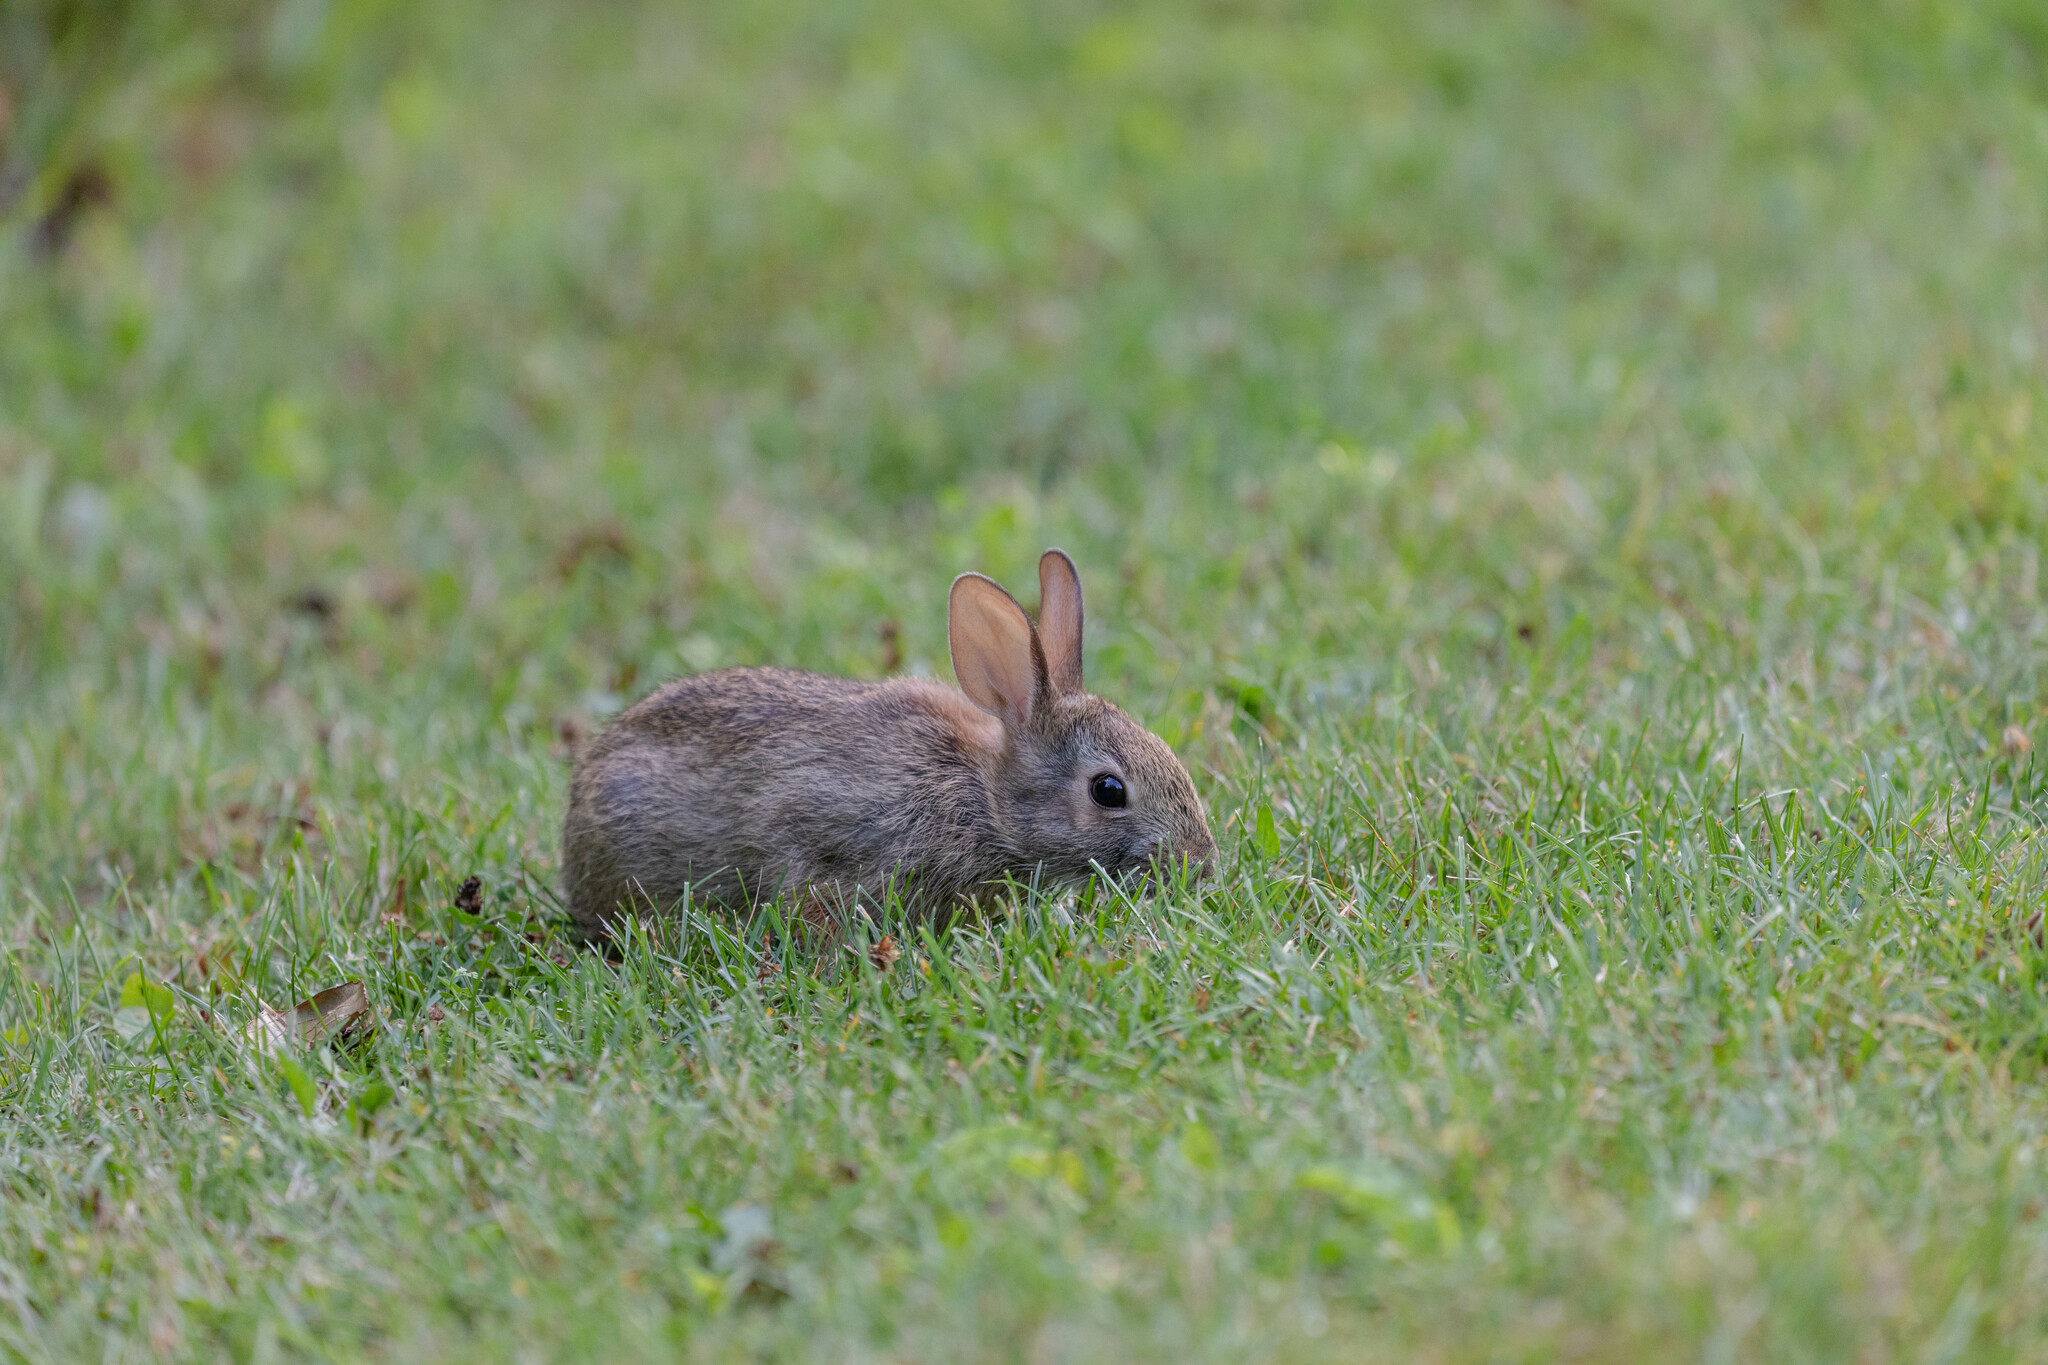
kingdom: Animalia
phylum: Chordata
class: Mammalia
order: Lagomorpha
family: Leporidae
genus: Sylvilagus
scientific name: Sylvilagus floridanus
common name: Eastern cottontail
